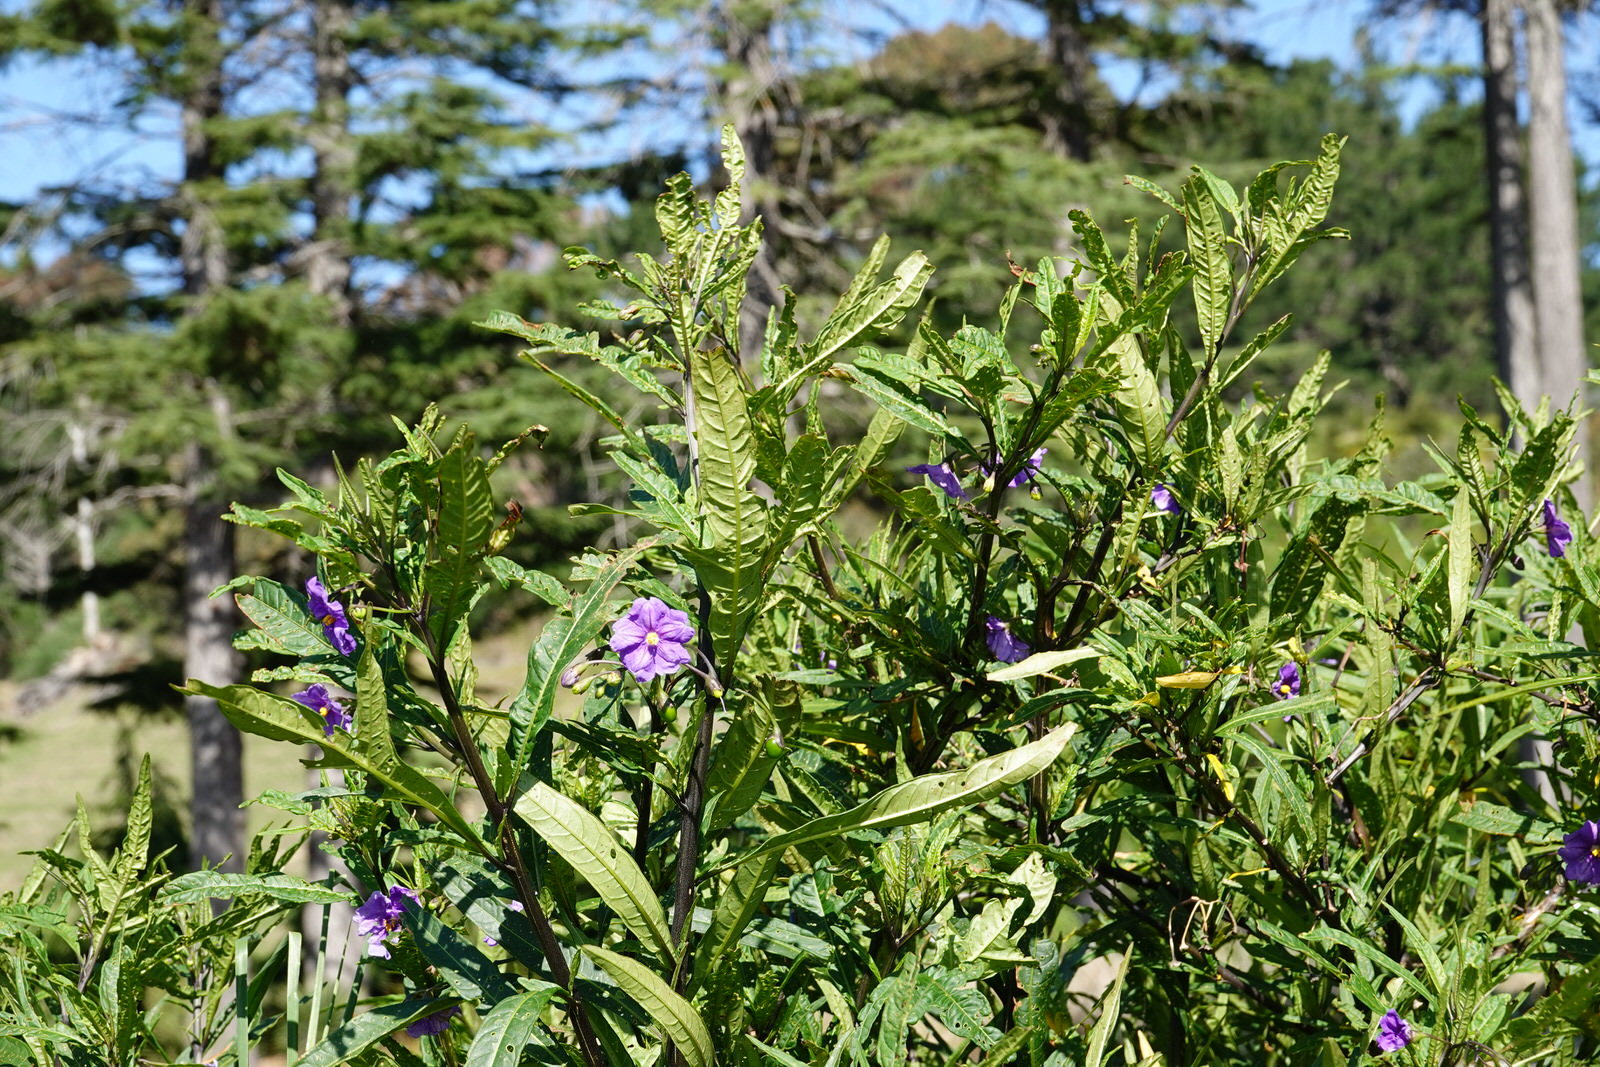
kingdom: Plantae
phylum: Tracheophyta
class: Magnoliopsida
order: Solanales
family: Solanaceae
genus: Solanum
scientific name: Solanum laciniatum
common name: Kangaroo-apple
